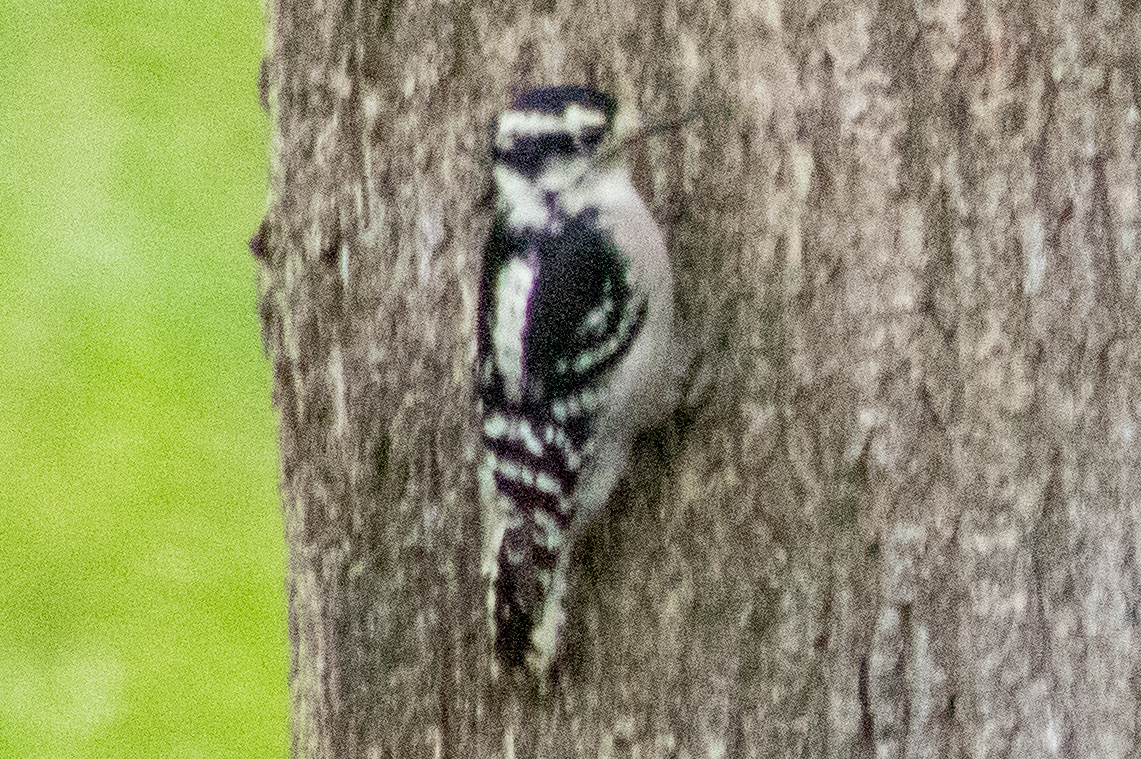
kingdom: Animalia
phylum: Chordata
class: Aves
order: Piciformes
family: Picidae
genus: Dryobates
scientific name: Dryobates pubescens
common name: Downy woodpecker
